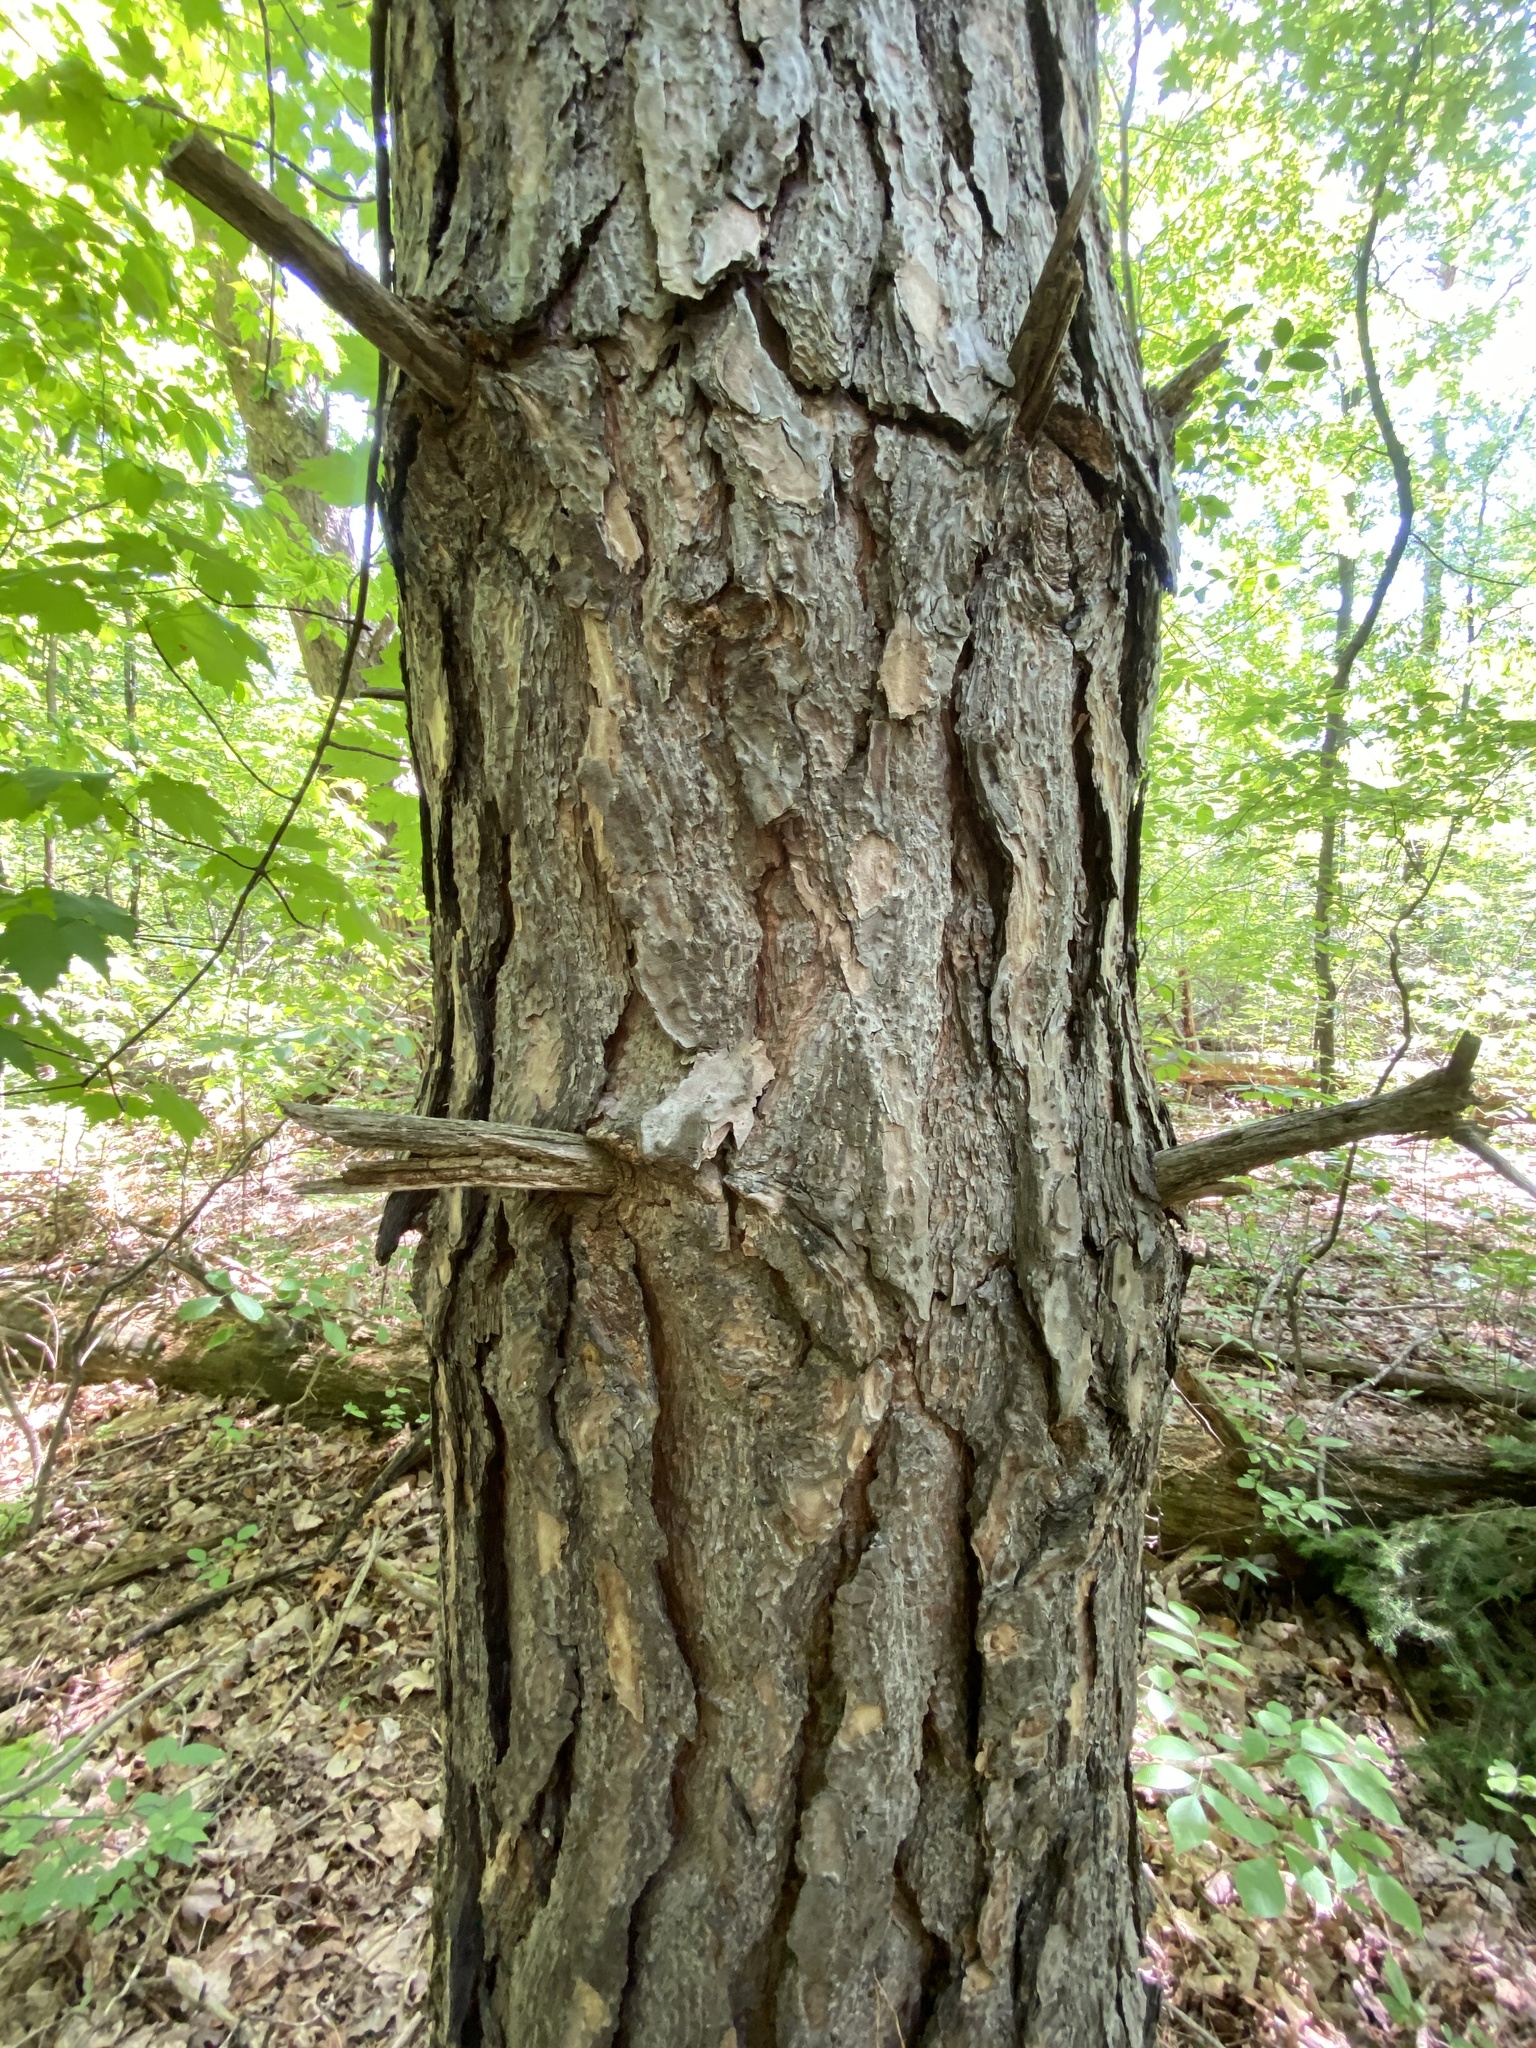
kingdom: Plantae
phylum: Tracheophyta
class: Pinopsida
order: Pinales
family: Pinaceae
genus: Pinus
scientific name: Pinus resinosa
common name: Norway pine
